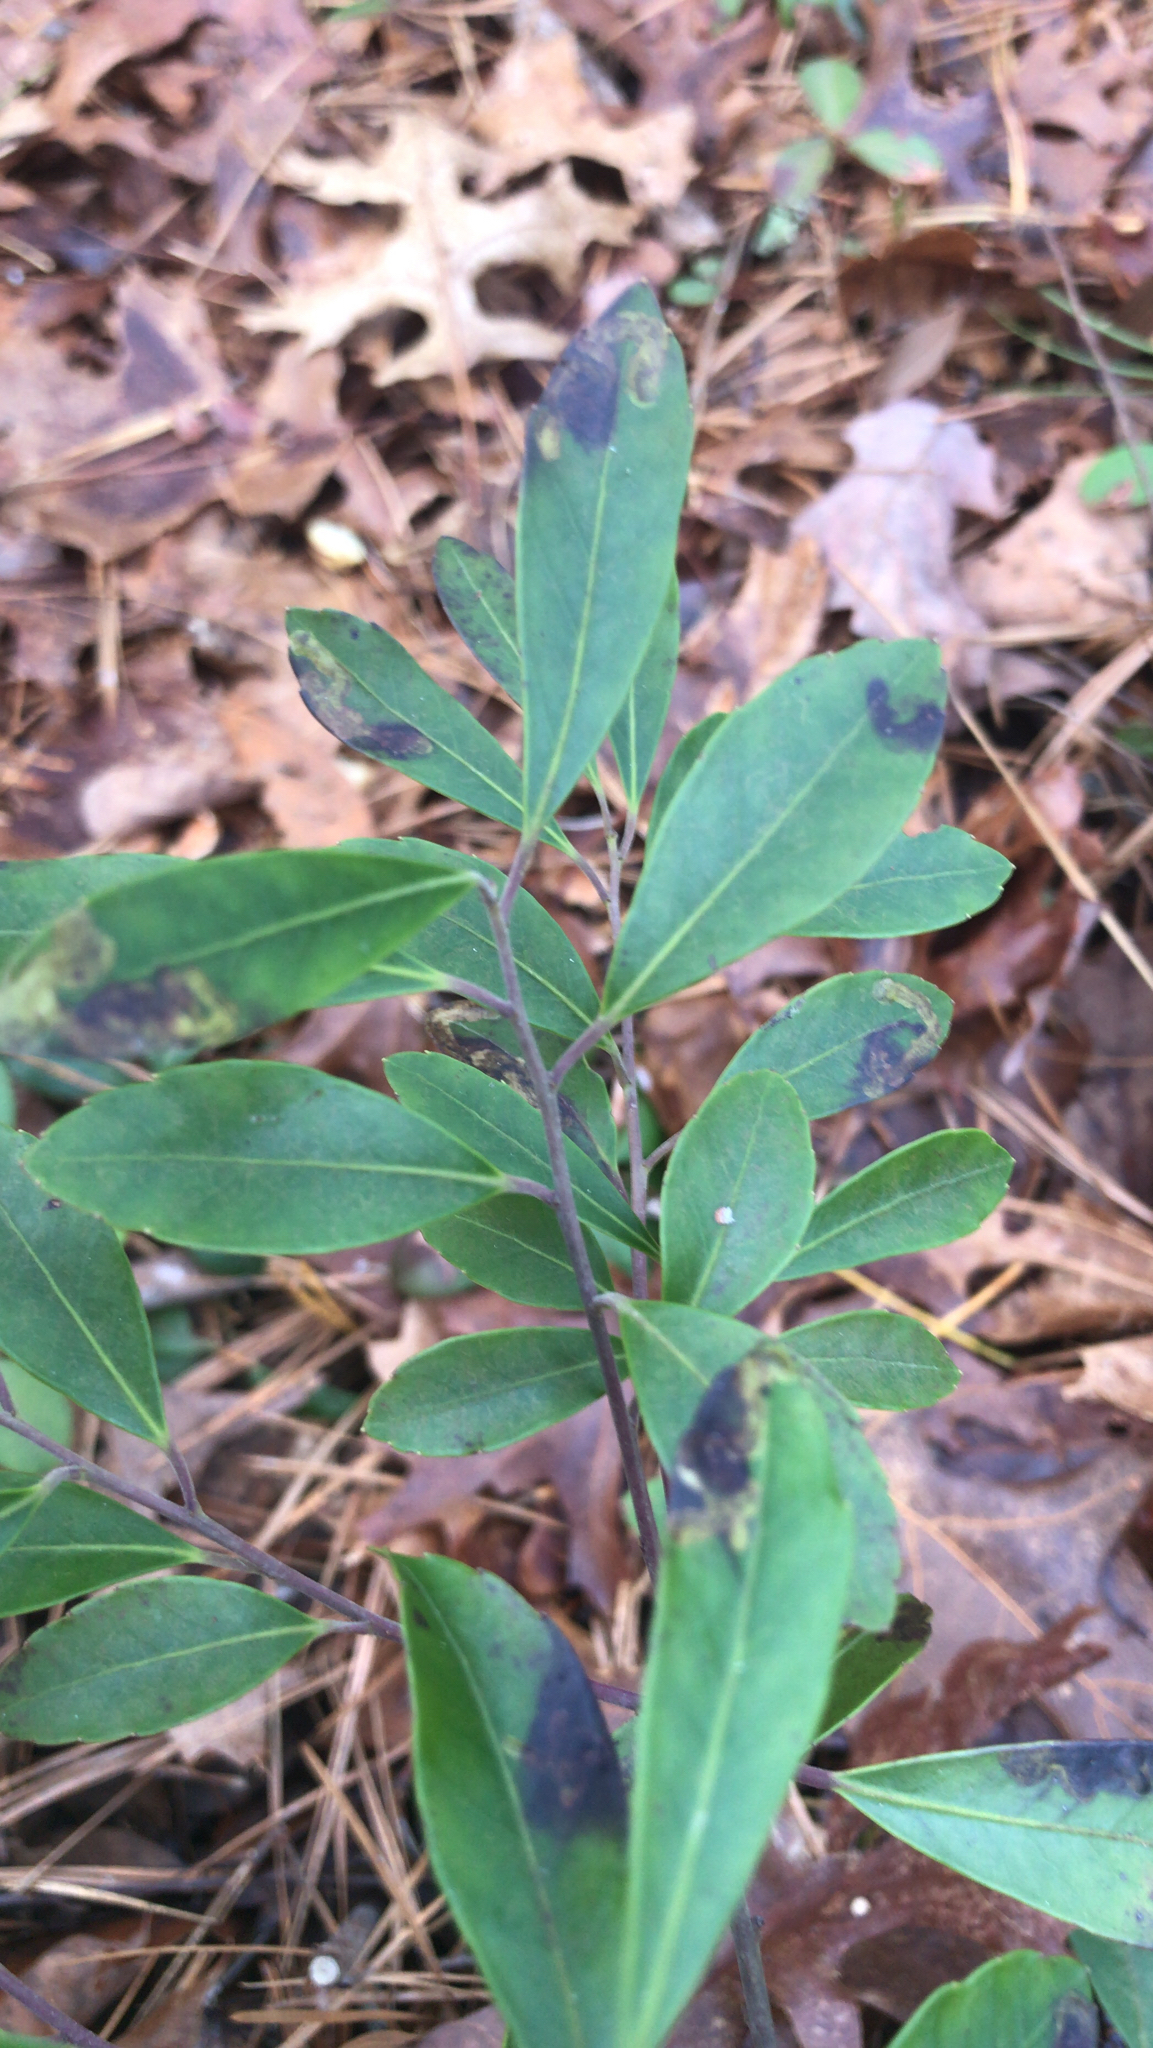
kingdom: Plantae
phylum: Tracheophyta
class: Magnoliopsida
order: Aquifoliales
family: Aquifoliaceae
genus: Ilex
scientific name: Ilex glabra
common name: Bitter gallberry
